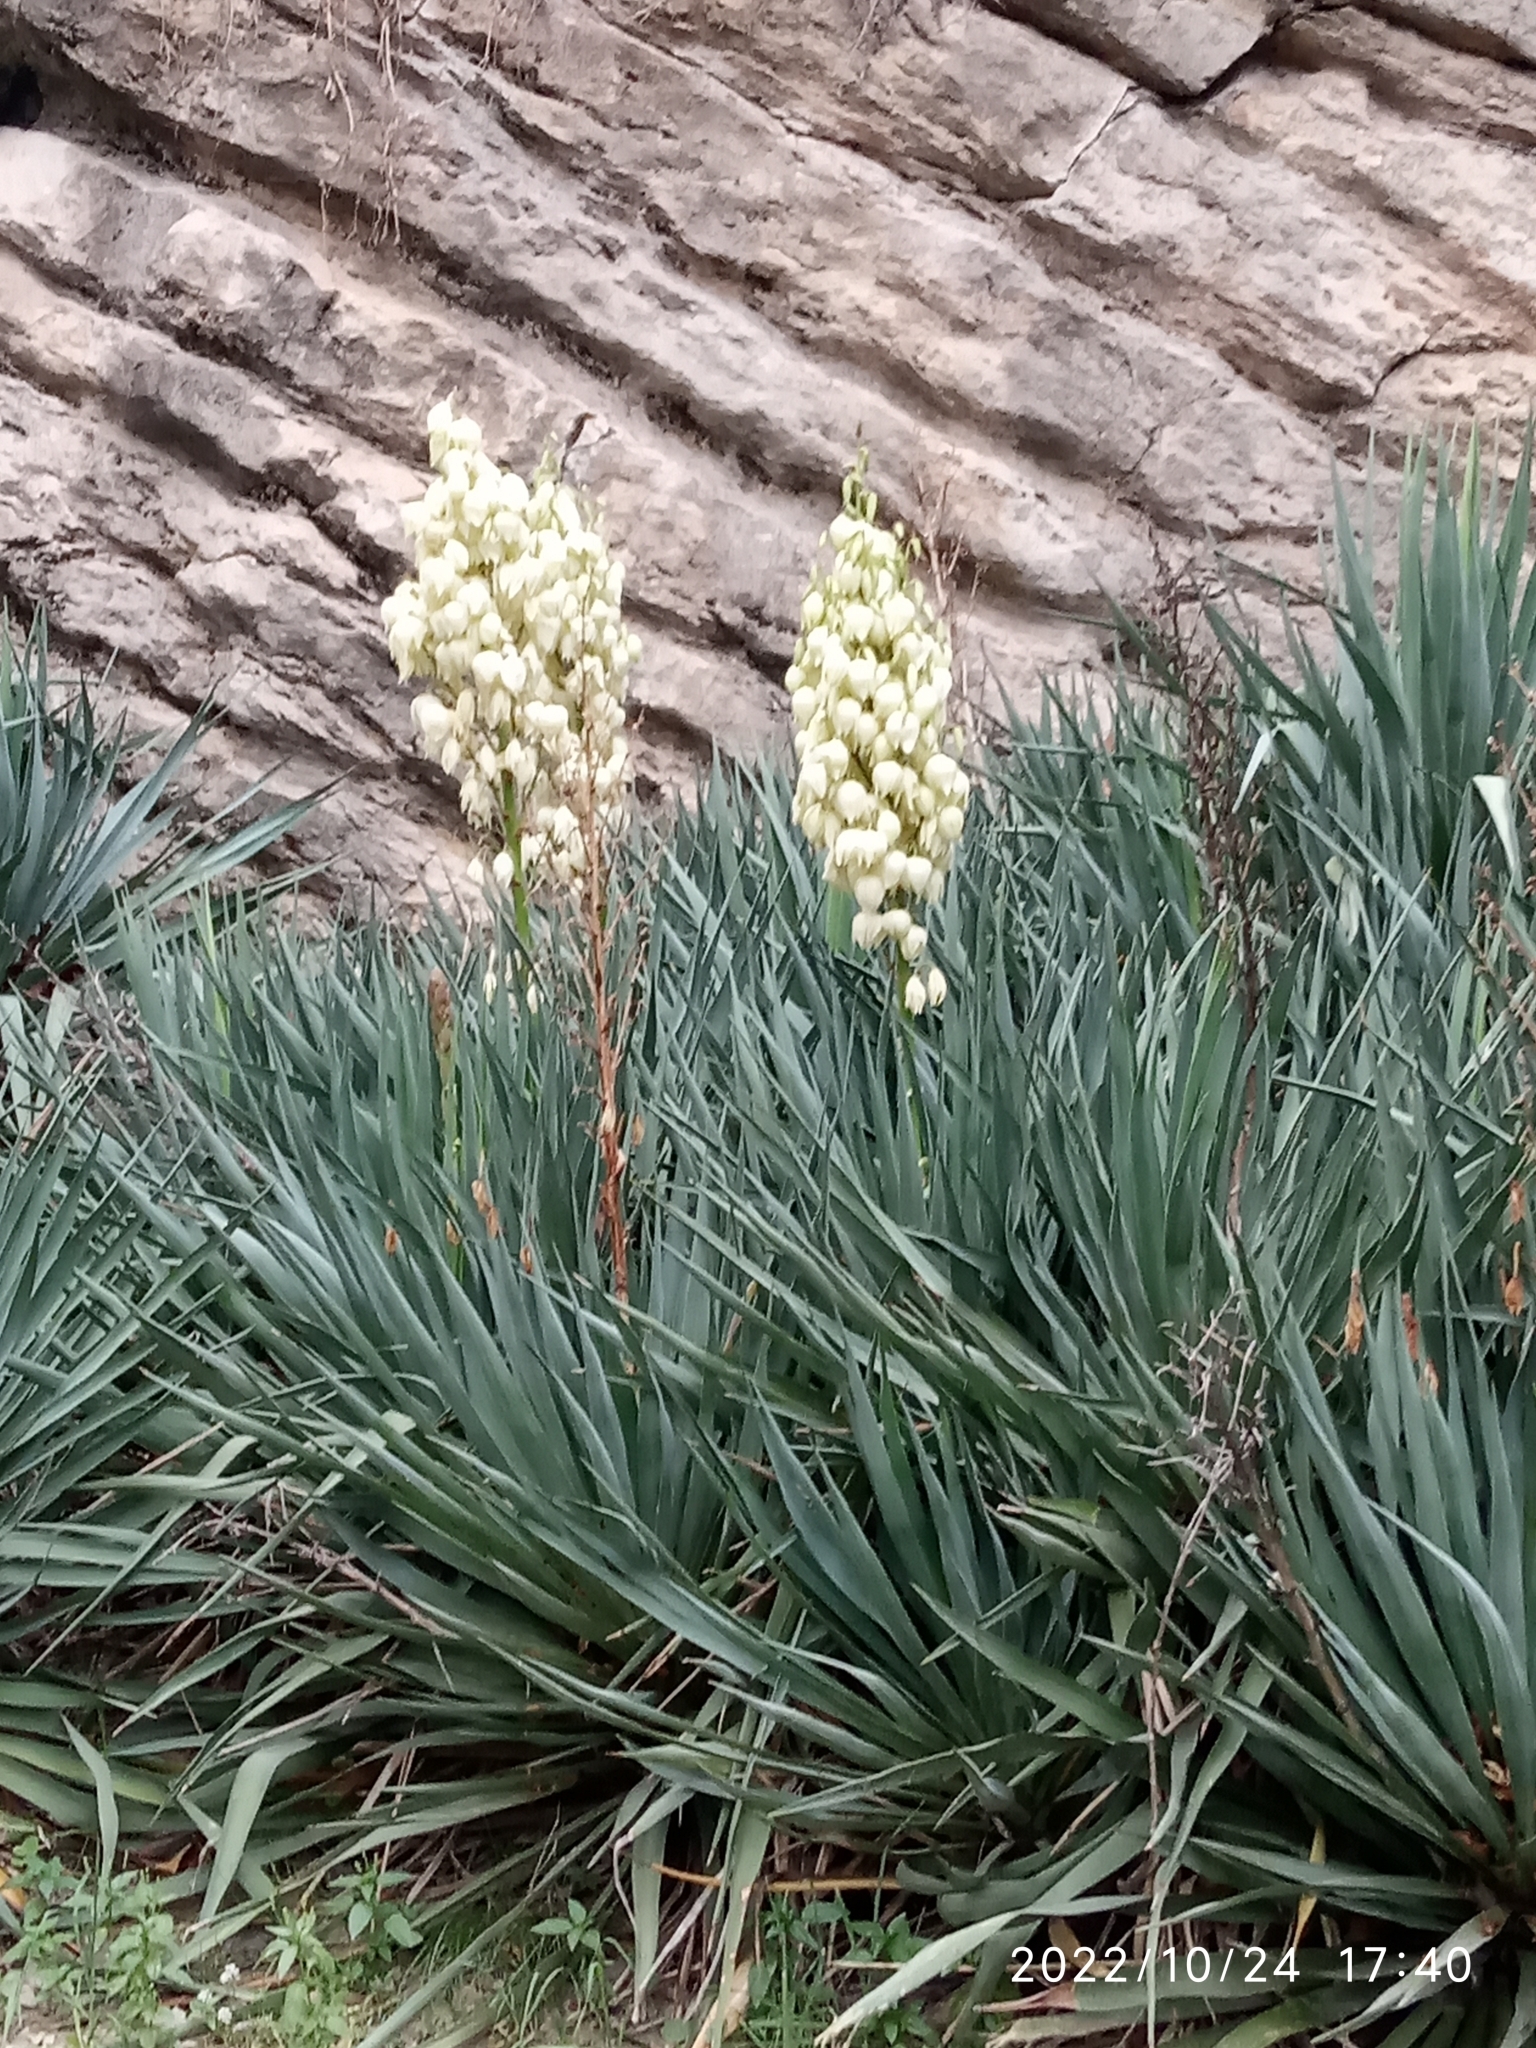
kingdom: Plantae
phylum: Tracheophyta
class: Liliopsida
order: Asparagales
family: Asparagaceae
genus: Yucca
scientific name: Yucca gloriosa
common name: Spanish-dagger
